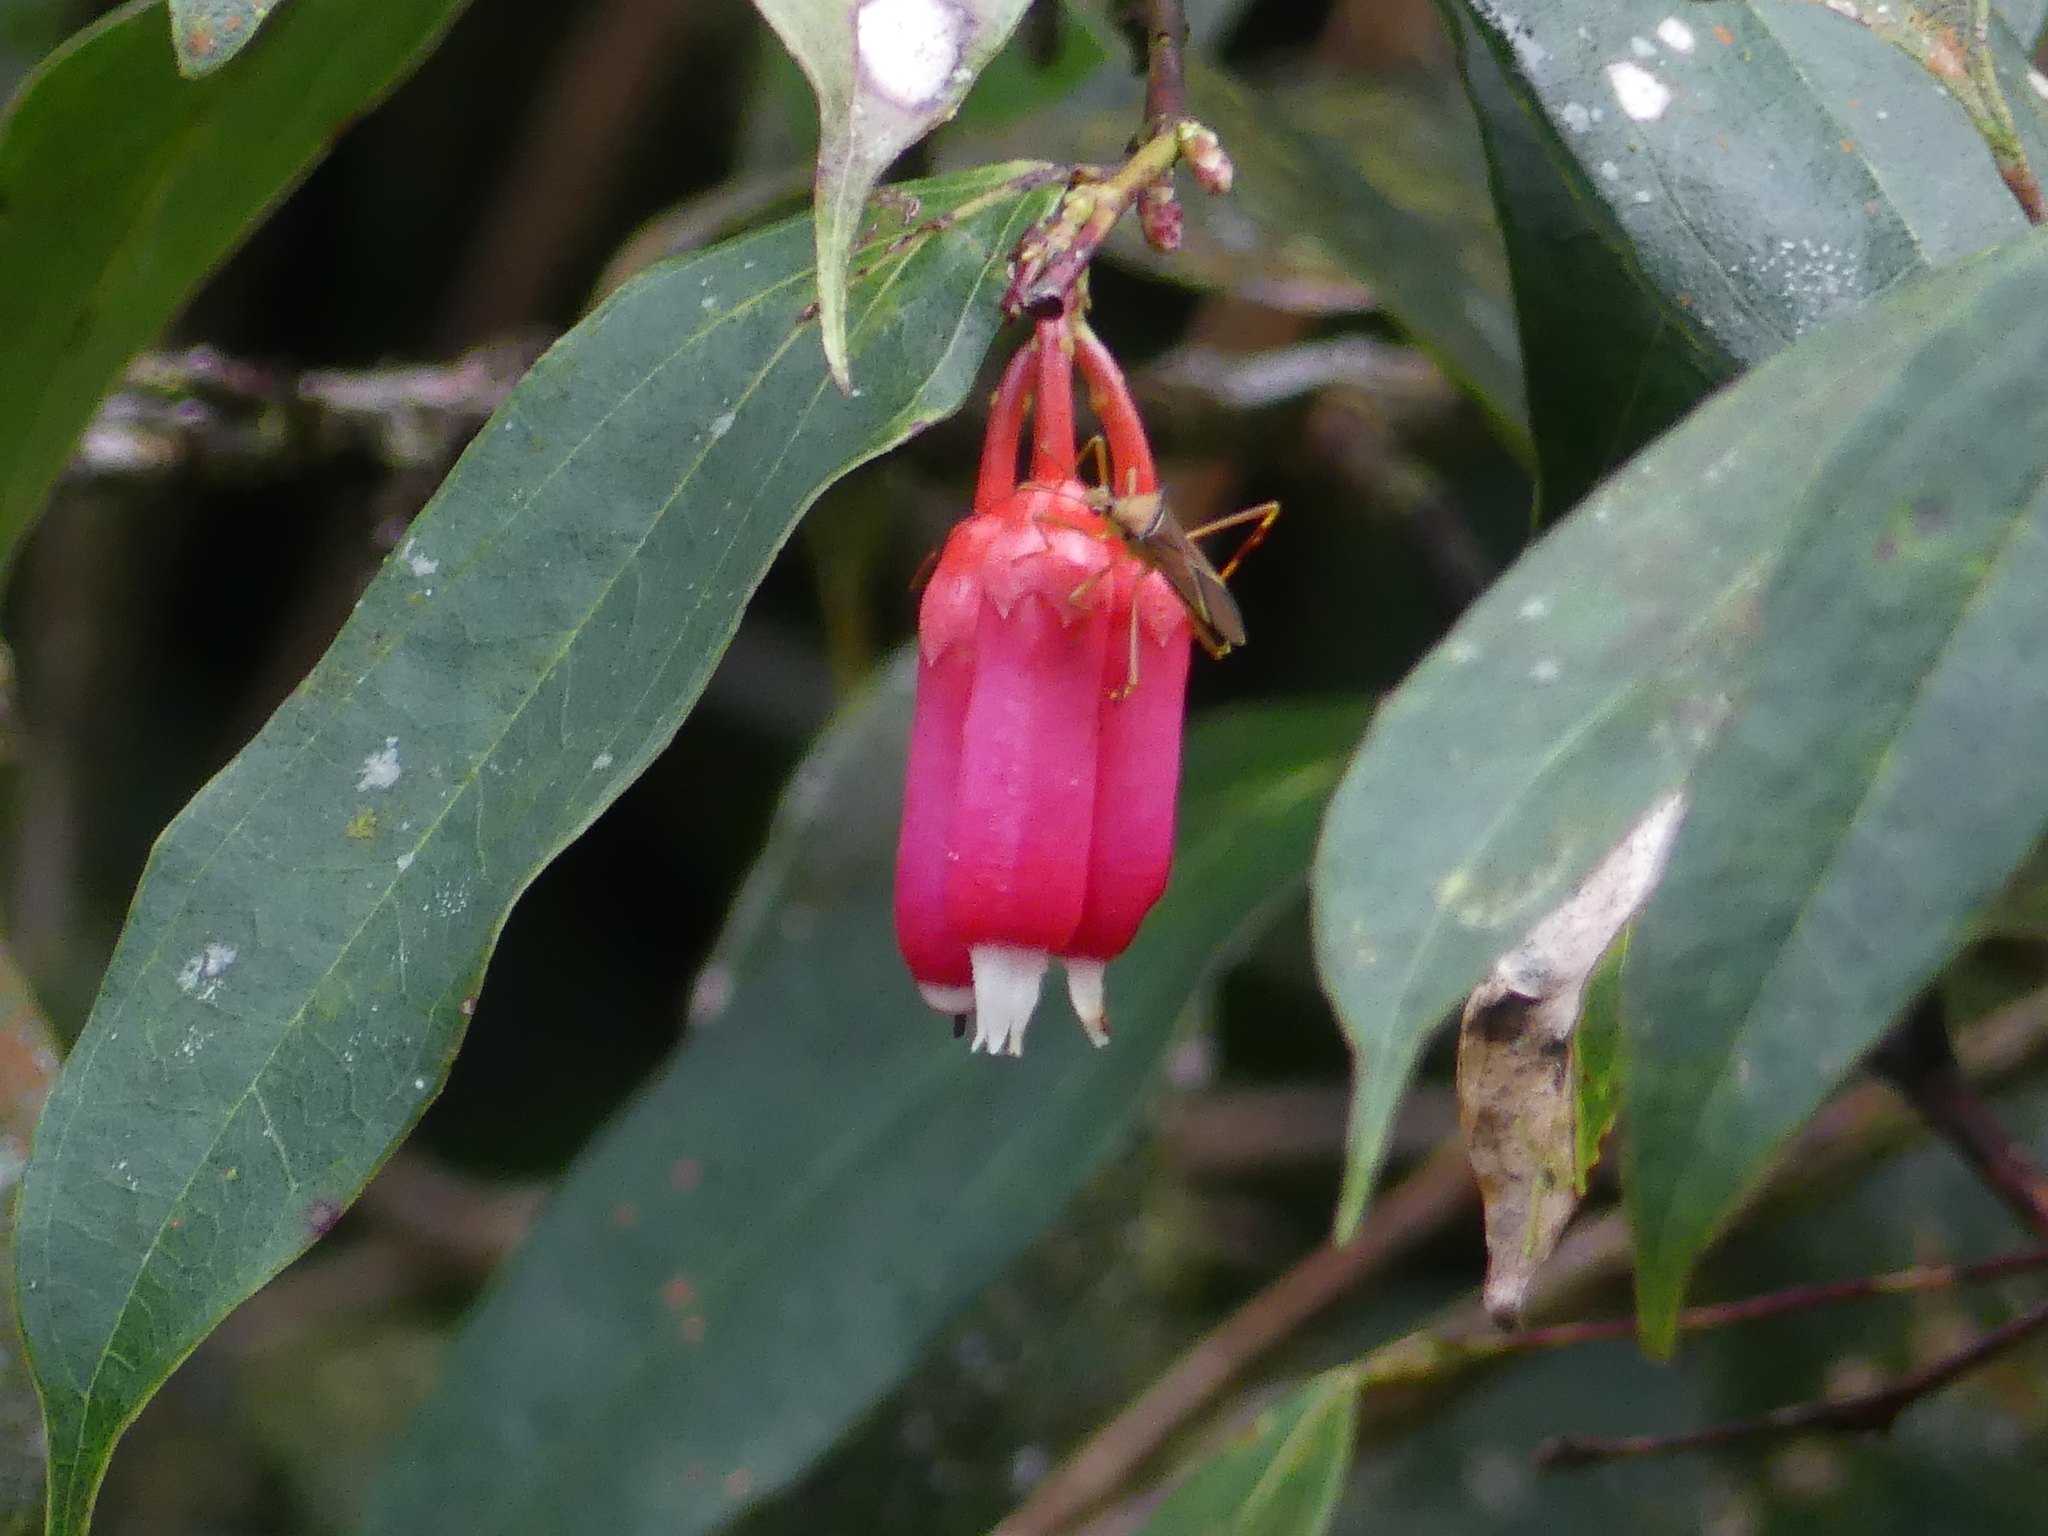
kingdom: Plantae
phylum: Tracheophyta
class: Magnoliopsida
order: Ericales
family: Ericaceae
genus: Psammisia
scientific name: Psammisia ramiflora
